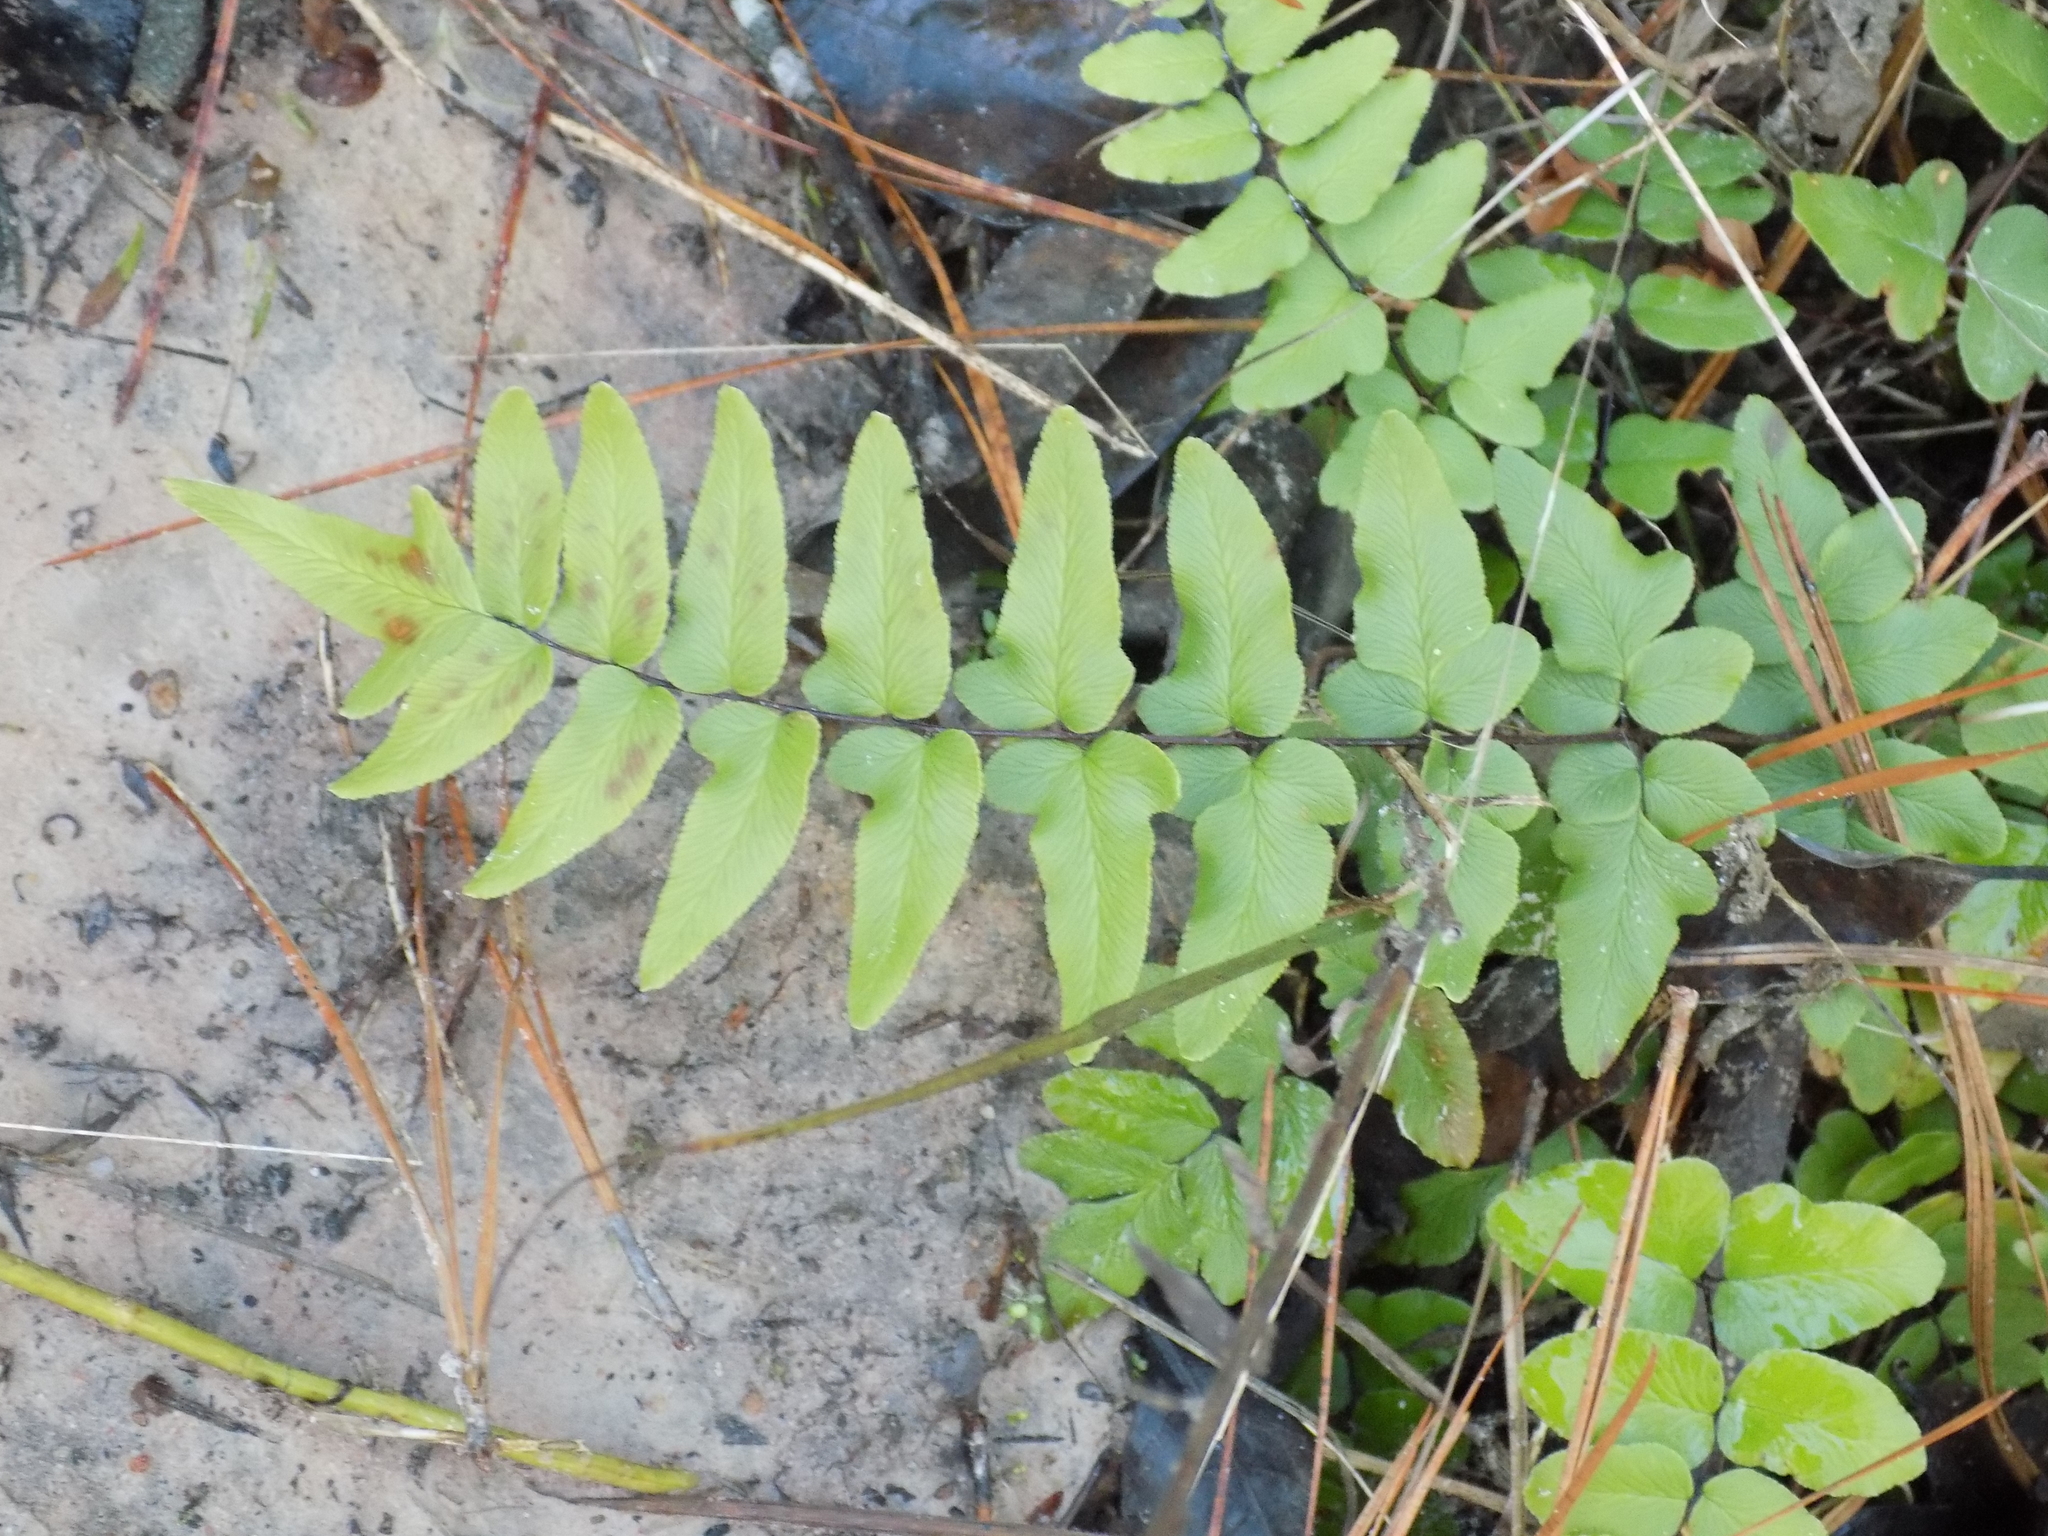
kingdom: Plantae
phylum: Tracheophyta
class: Polypodiopsida
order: Polypodiales
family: Pteridaceae
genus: Cheilanthes
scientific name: Cheilanthes viridis
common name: Green cliffbrake
